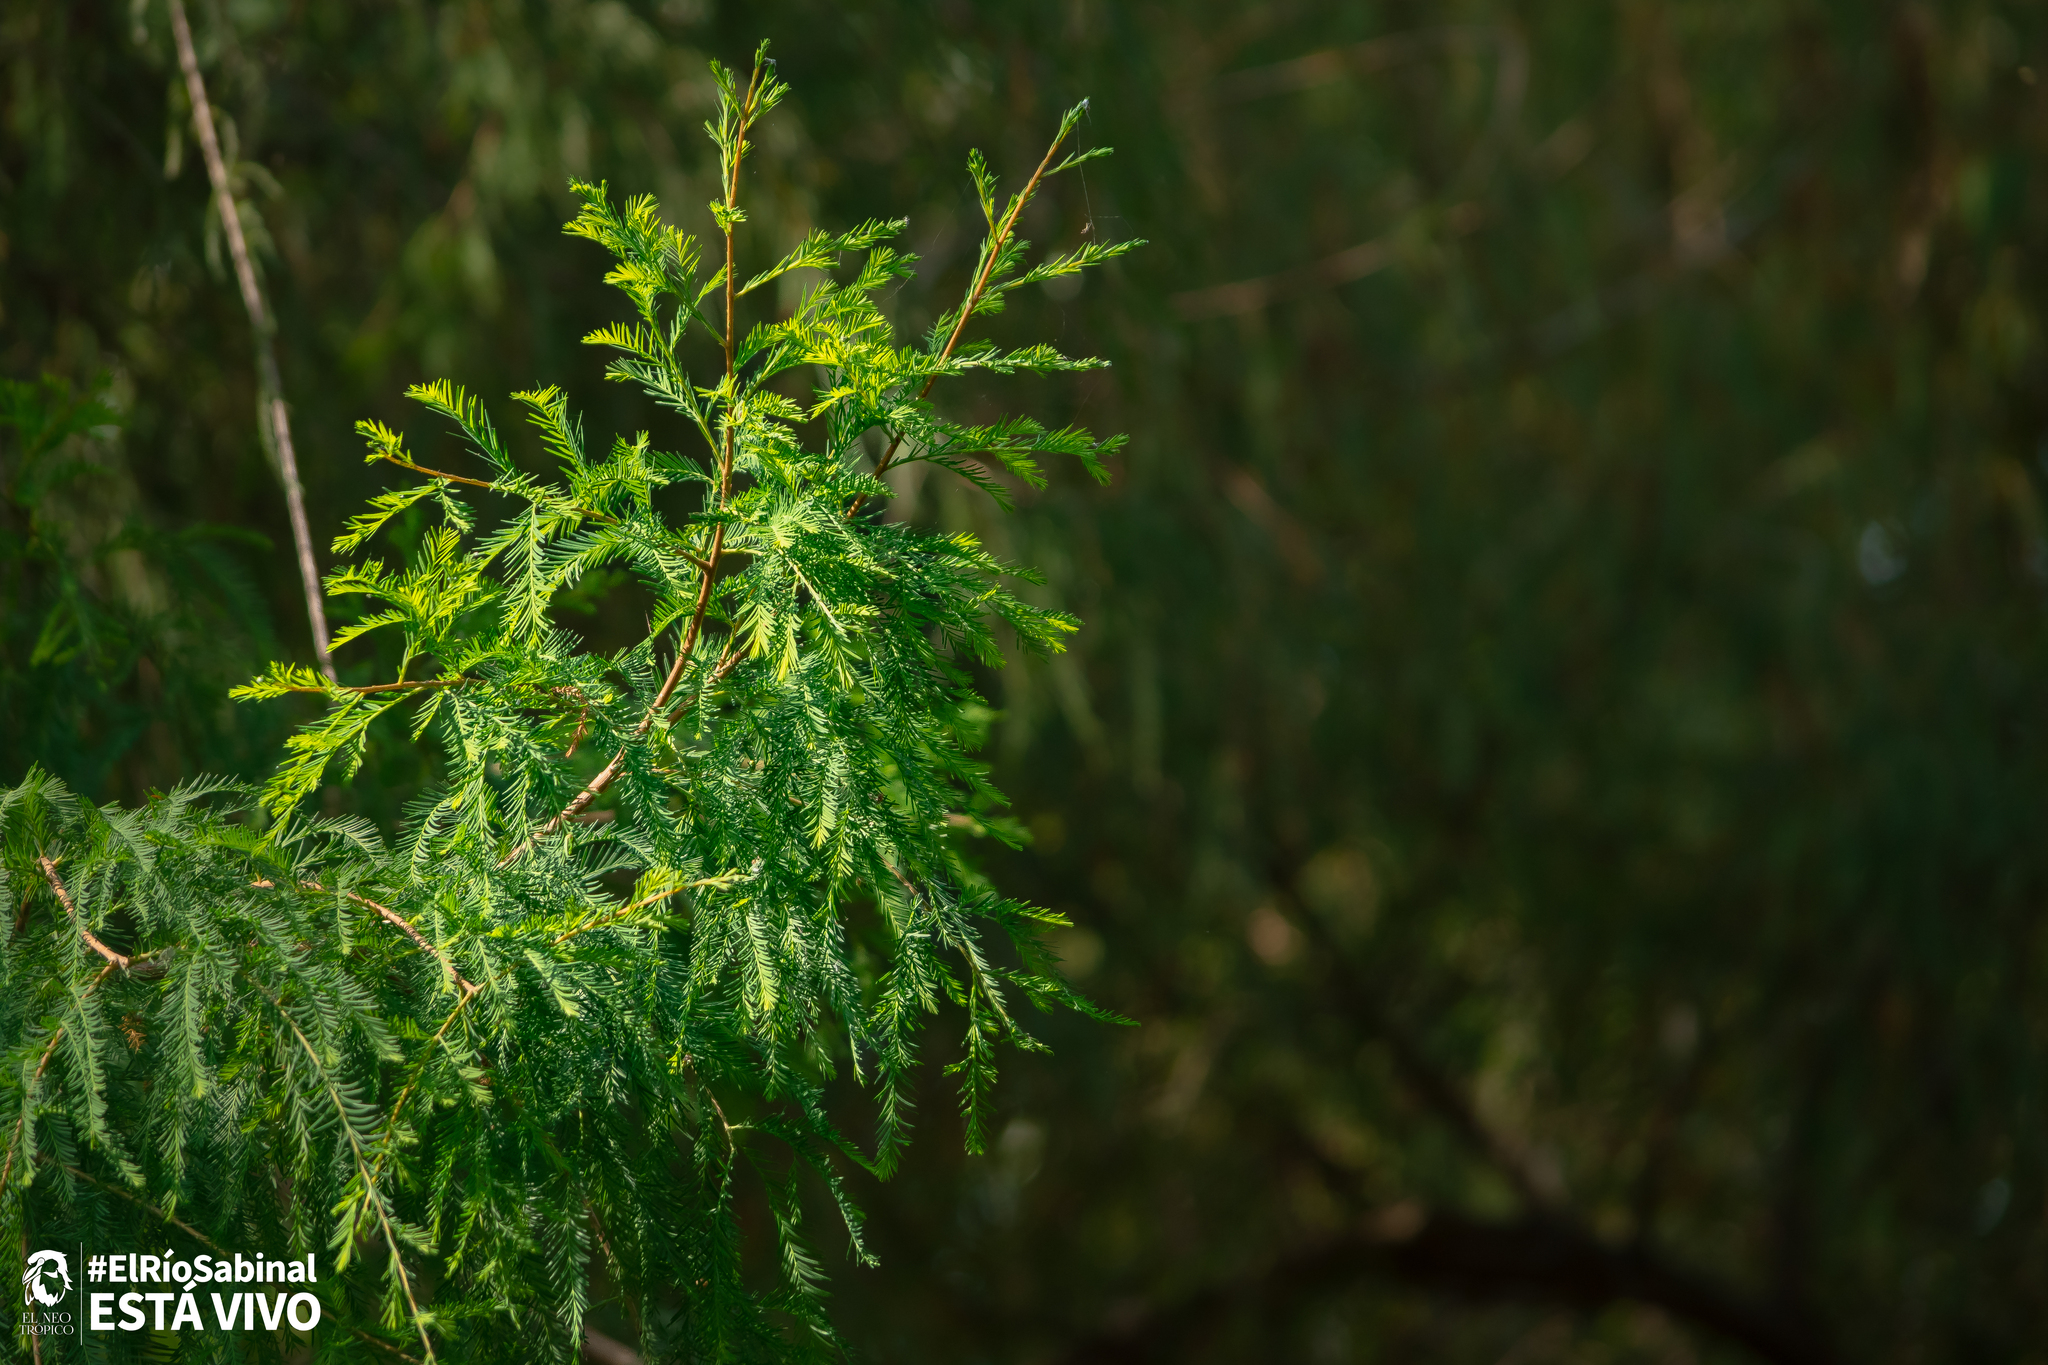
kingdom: Plantae
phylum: Tracheophyta
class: Pinopsida
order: Pinales
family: Cupressaceae
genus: Taxodium
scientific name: Taxodium mucronatum
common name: Montezume bald cypress
